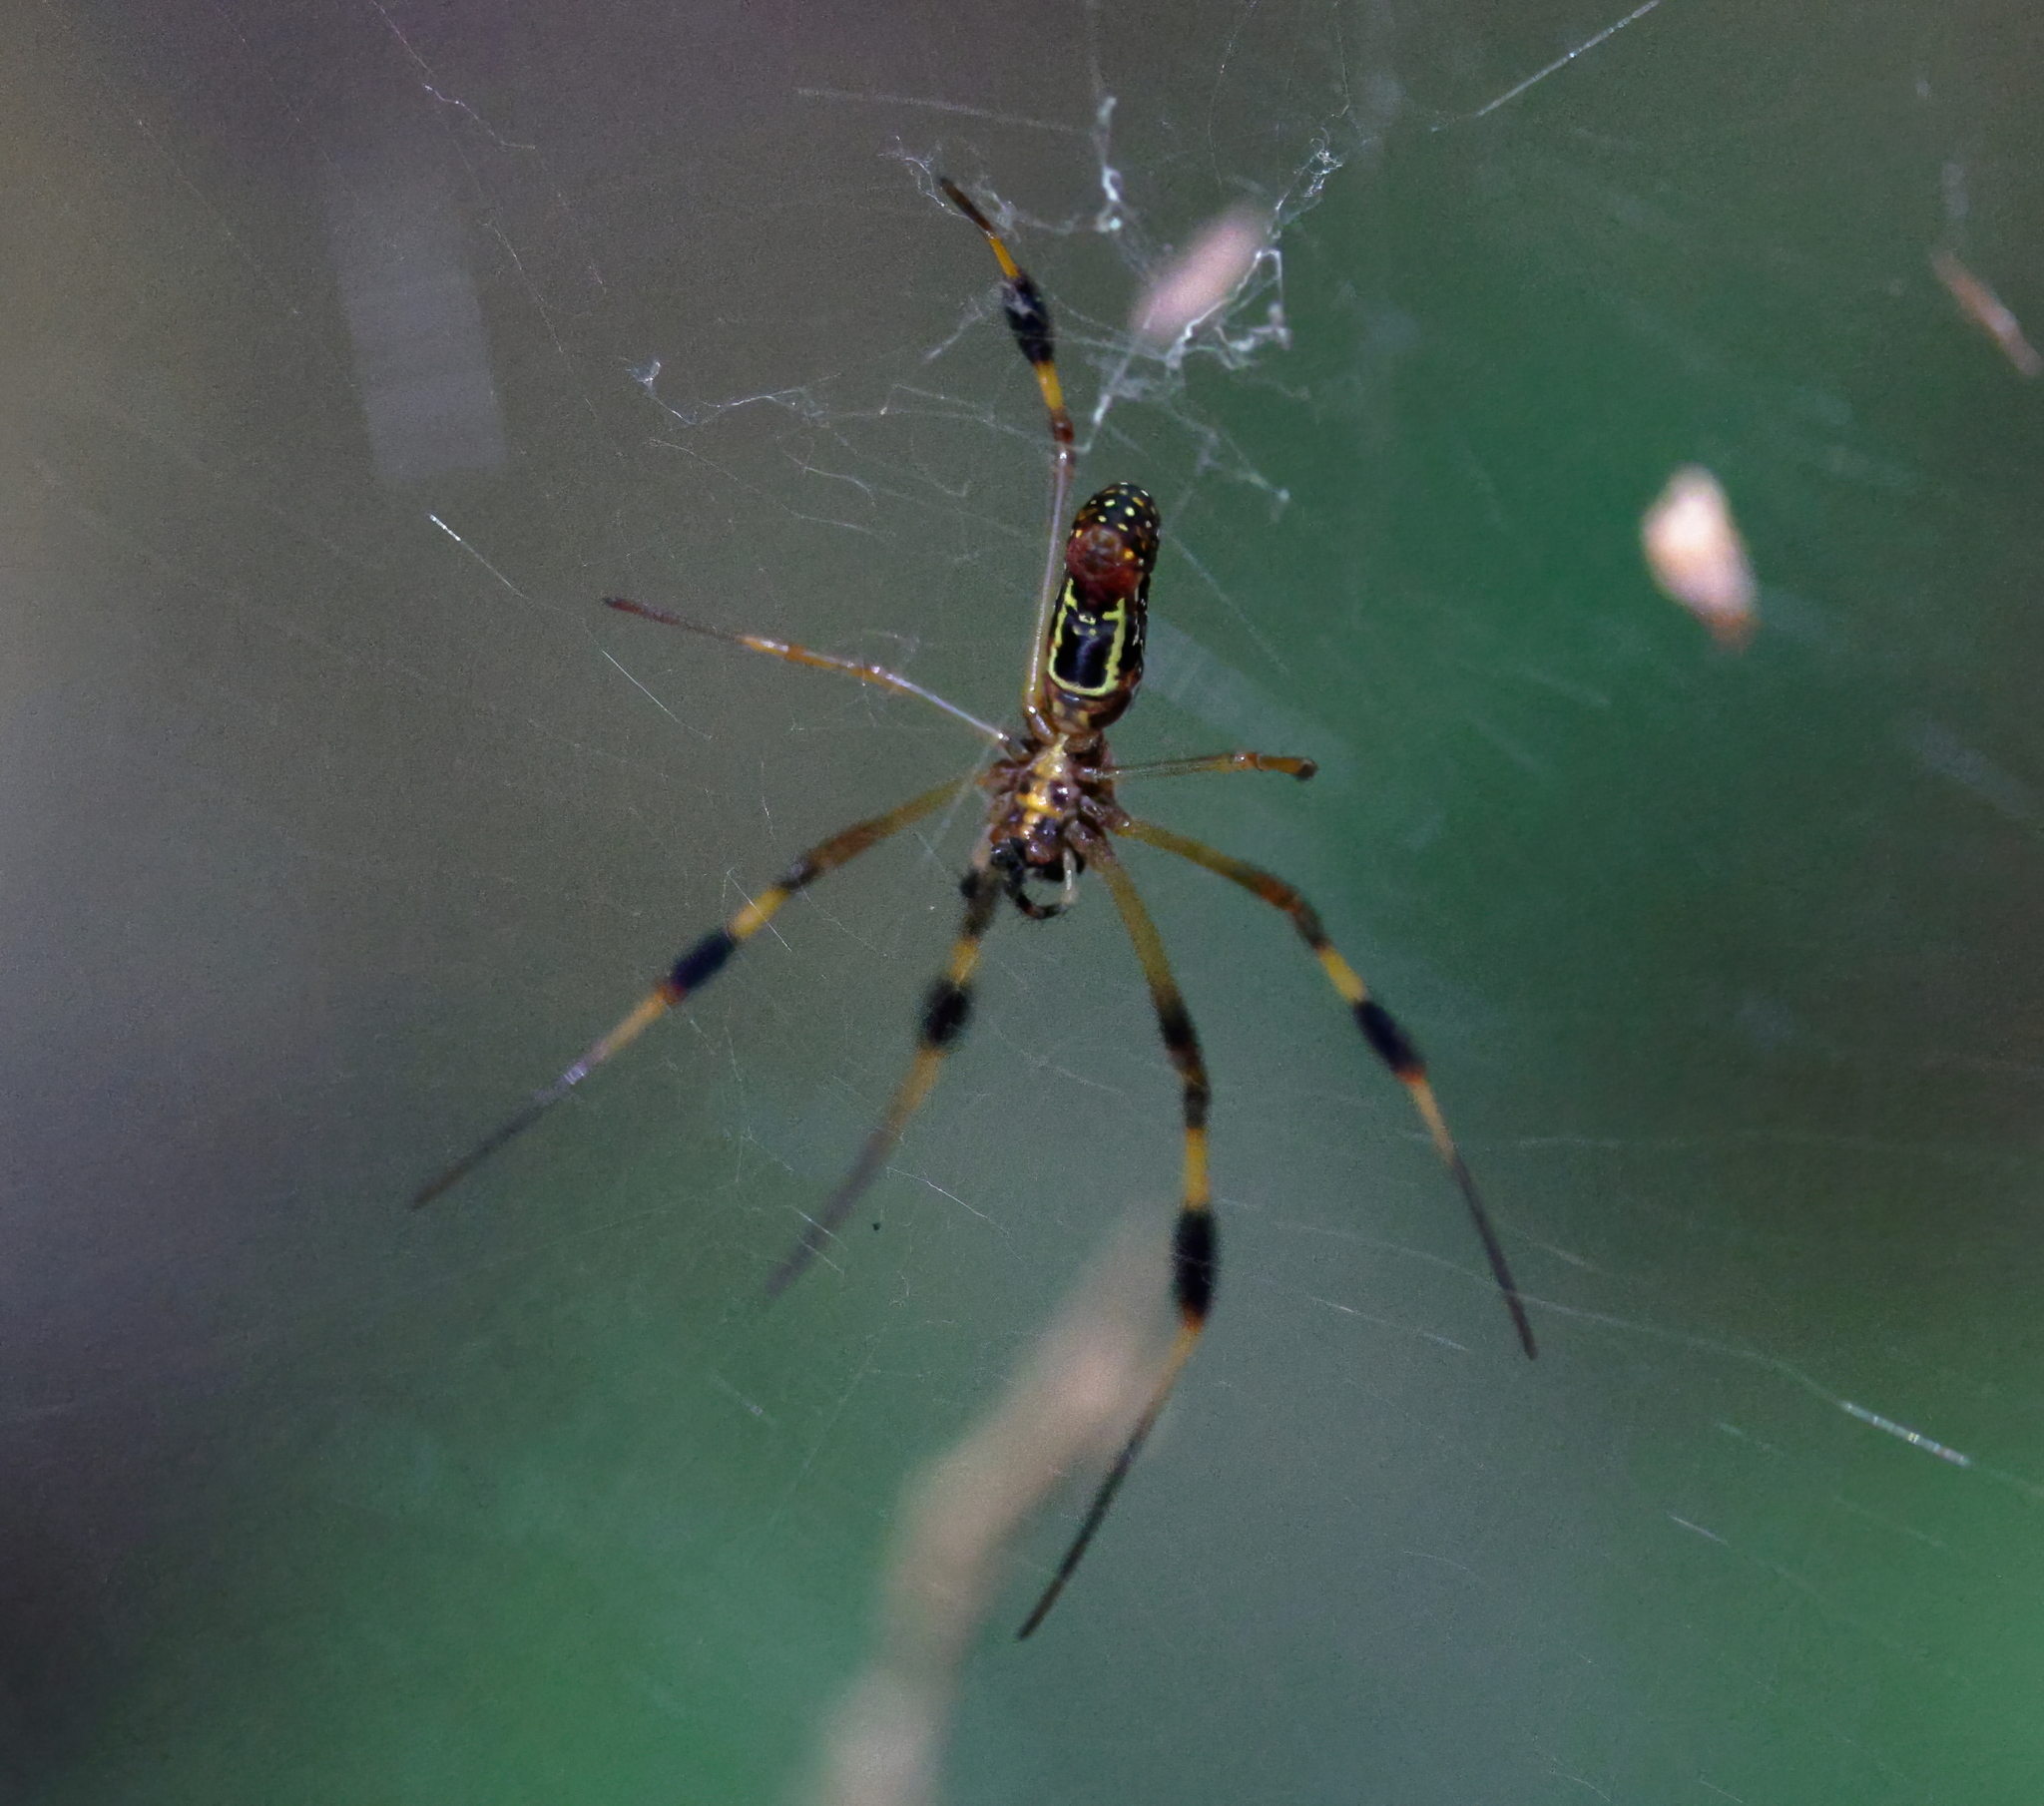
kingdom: Animalia
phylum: Arthropoda
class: Arachnida
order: Araneae
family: Araneidae
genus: Trichonephila
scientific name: Trichonephila clavipes
